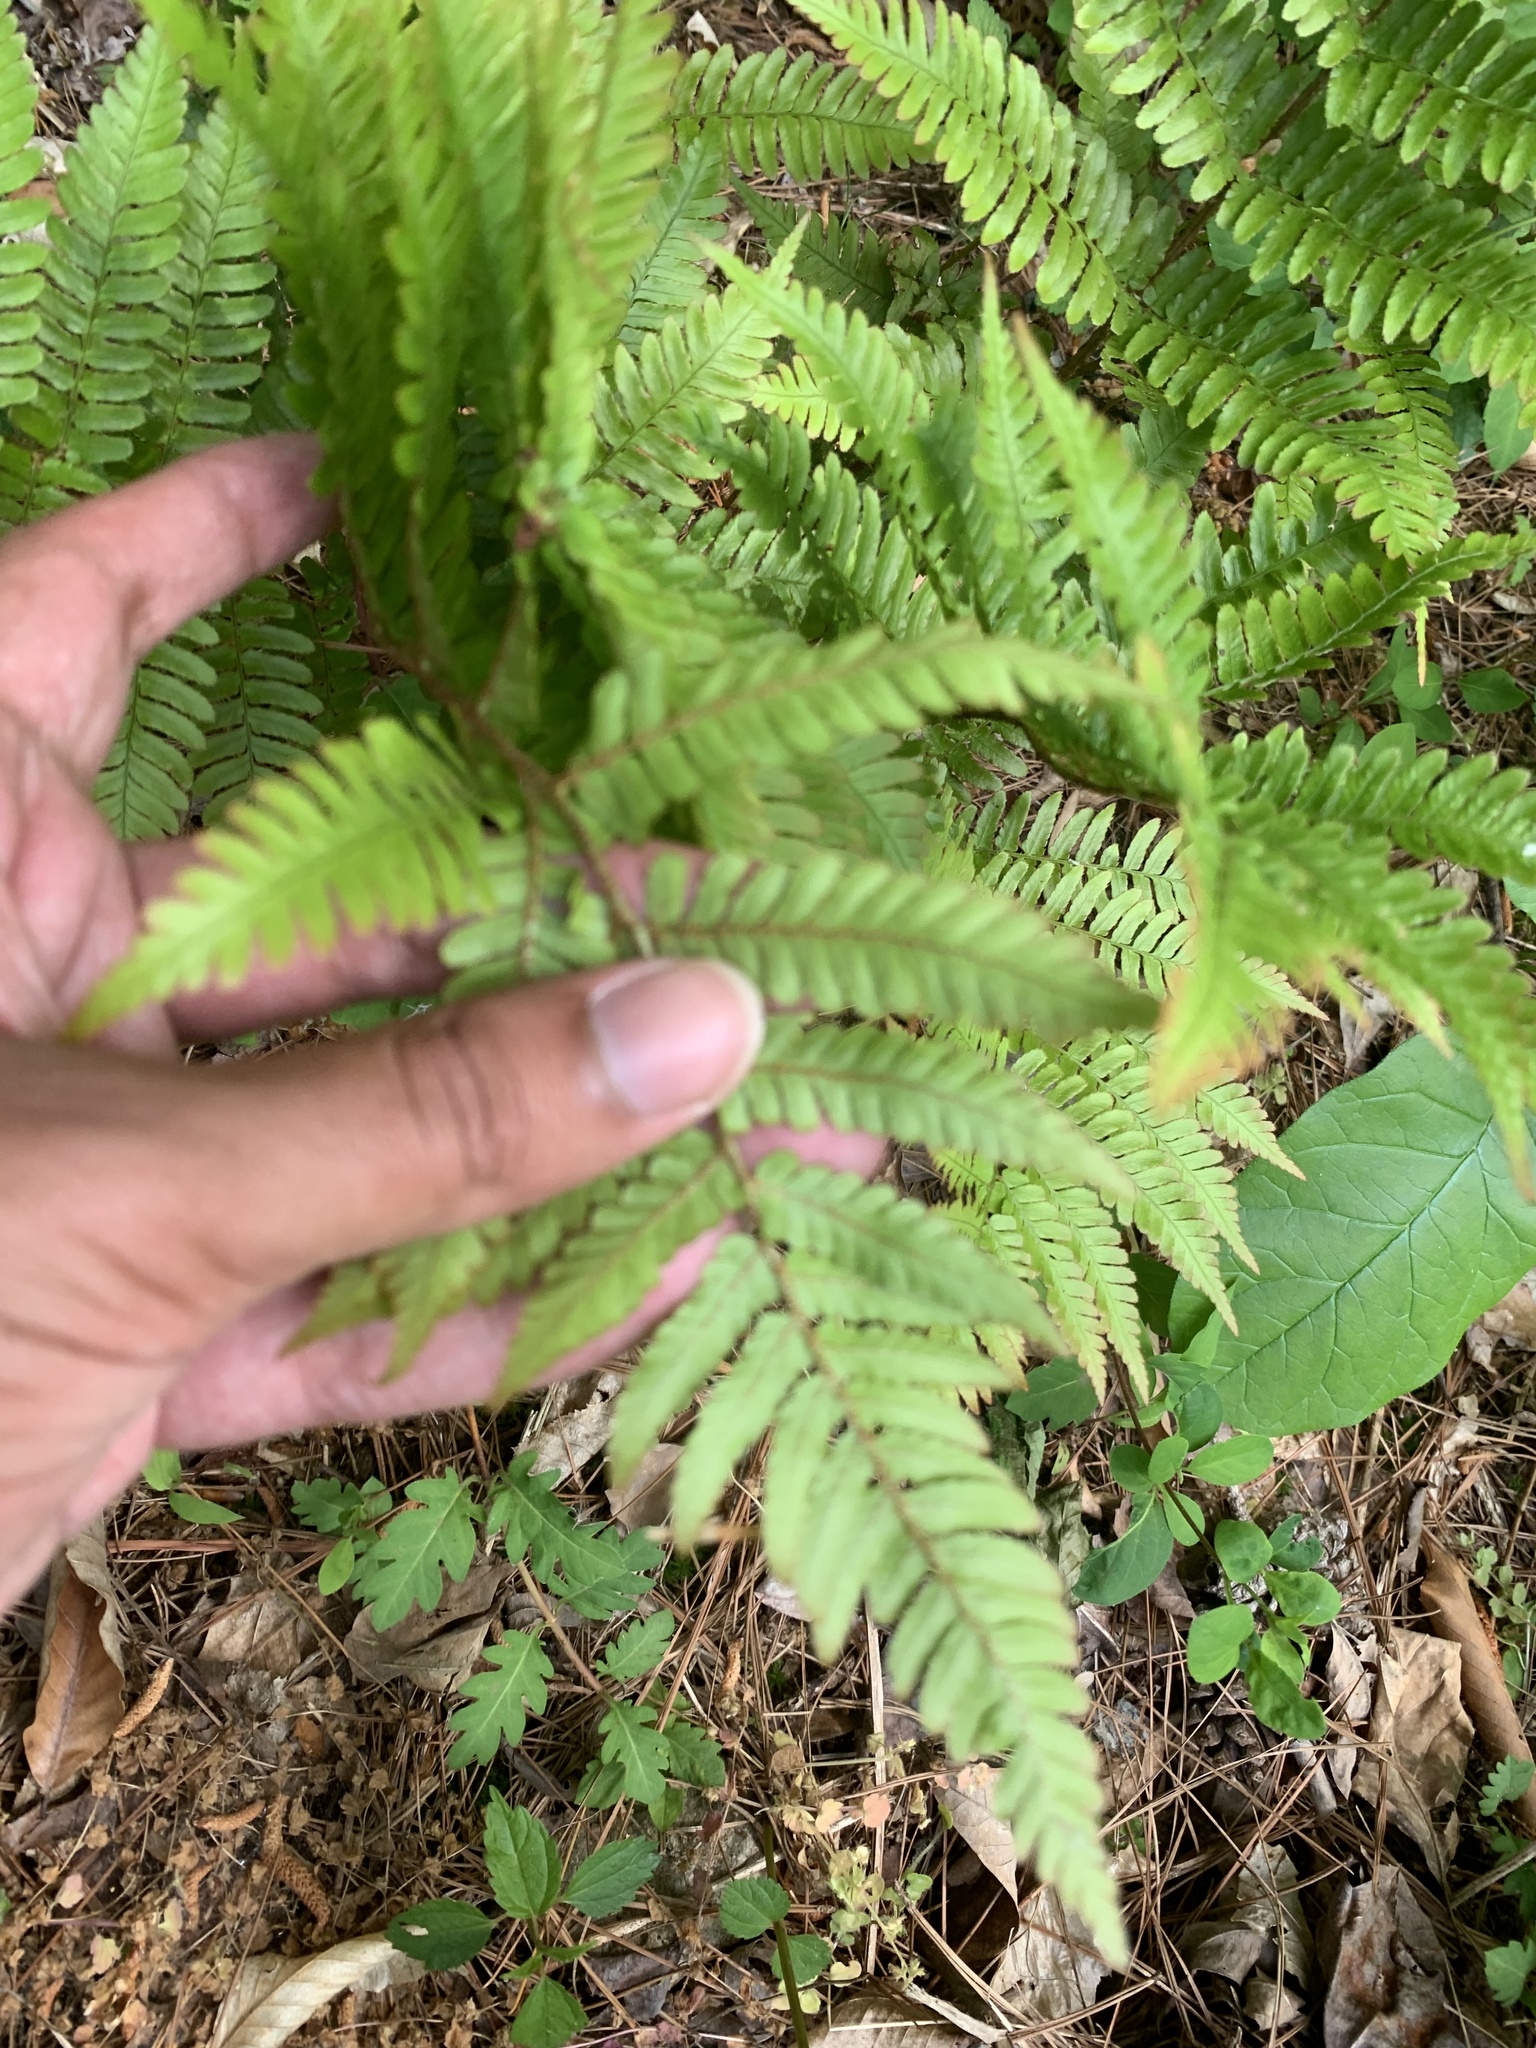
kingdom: Plantae
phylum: Tracheophyta
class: Polypodiopsida
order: Polypodiales
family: Dryopteridaceae
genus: Dryopteris
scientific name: Dryopteris erythrosora
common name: Autumn fern
